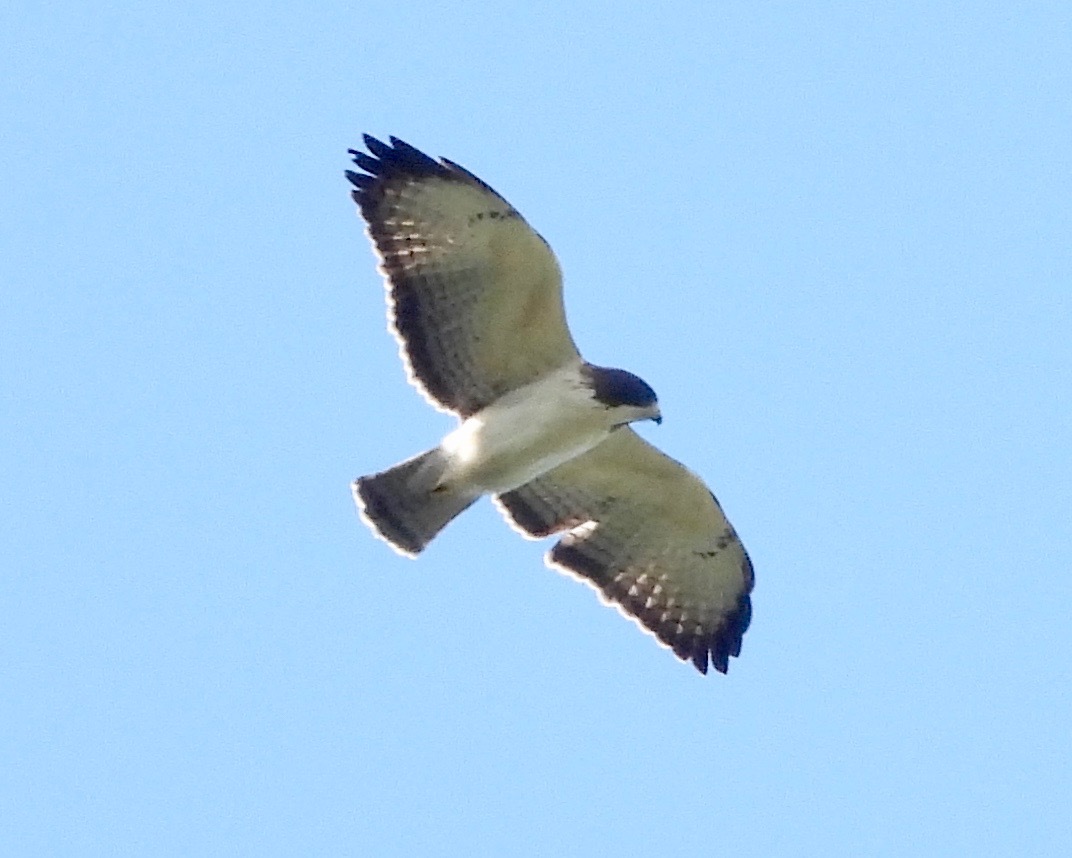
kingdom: Animalia
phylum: Chordata
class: Aves
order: Accipitriformes
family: Accipitridae
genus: Buteo
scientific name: Buteo brachyurus
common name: Short-tailed hawk
